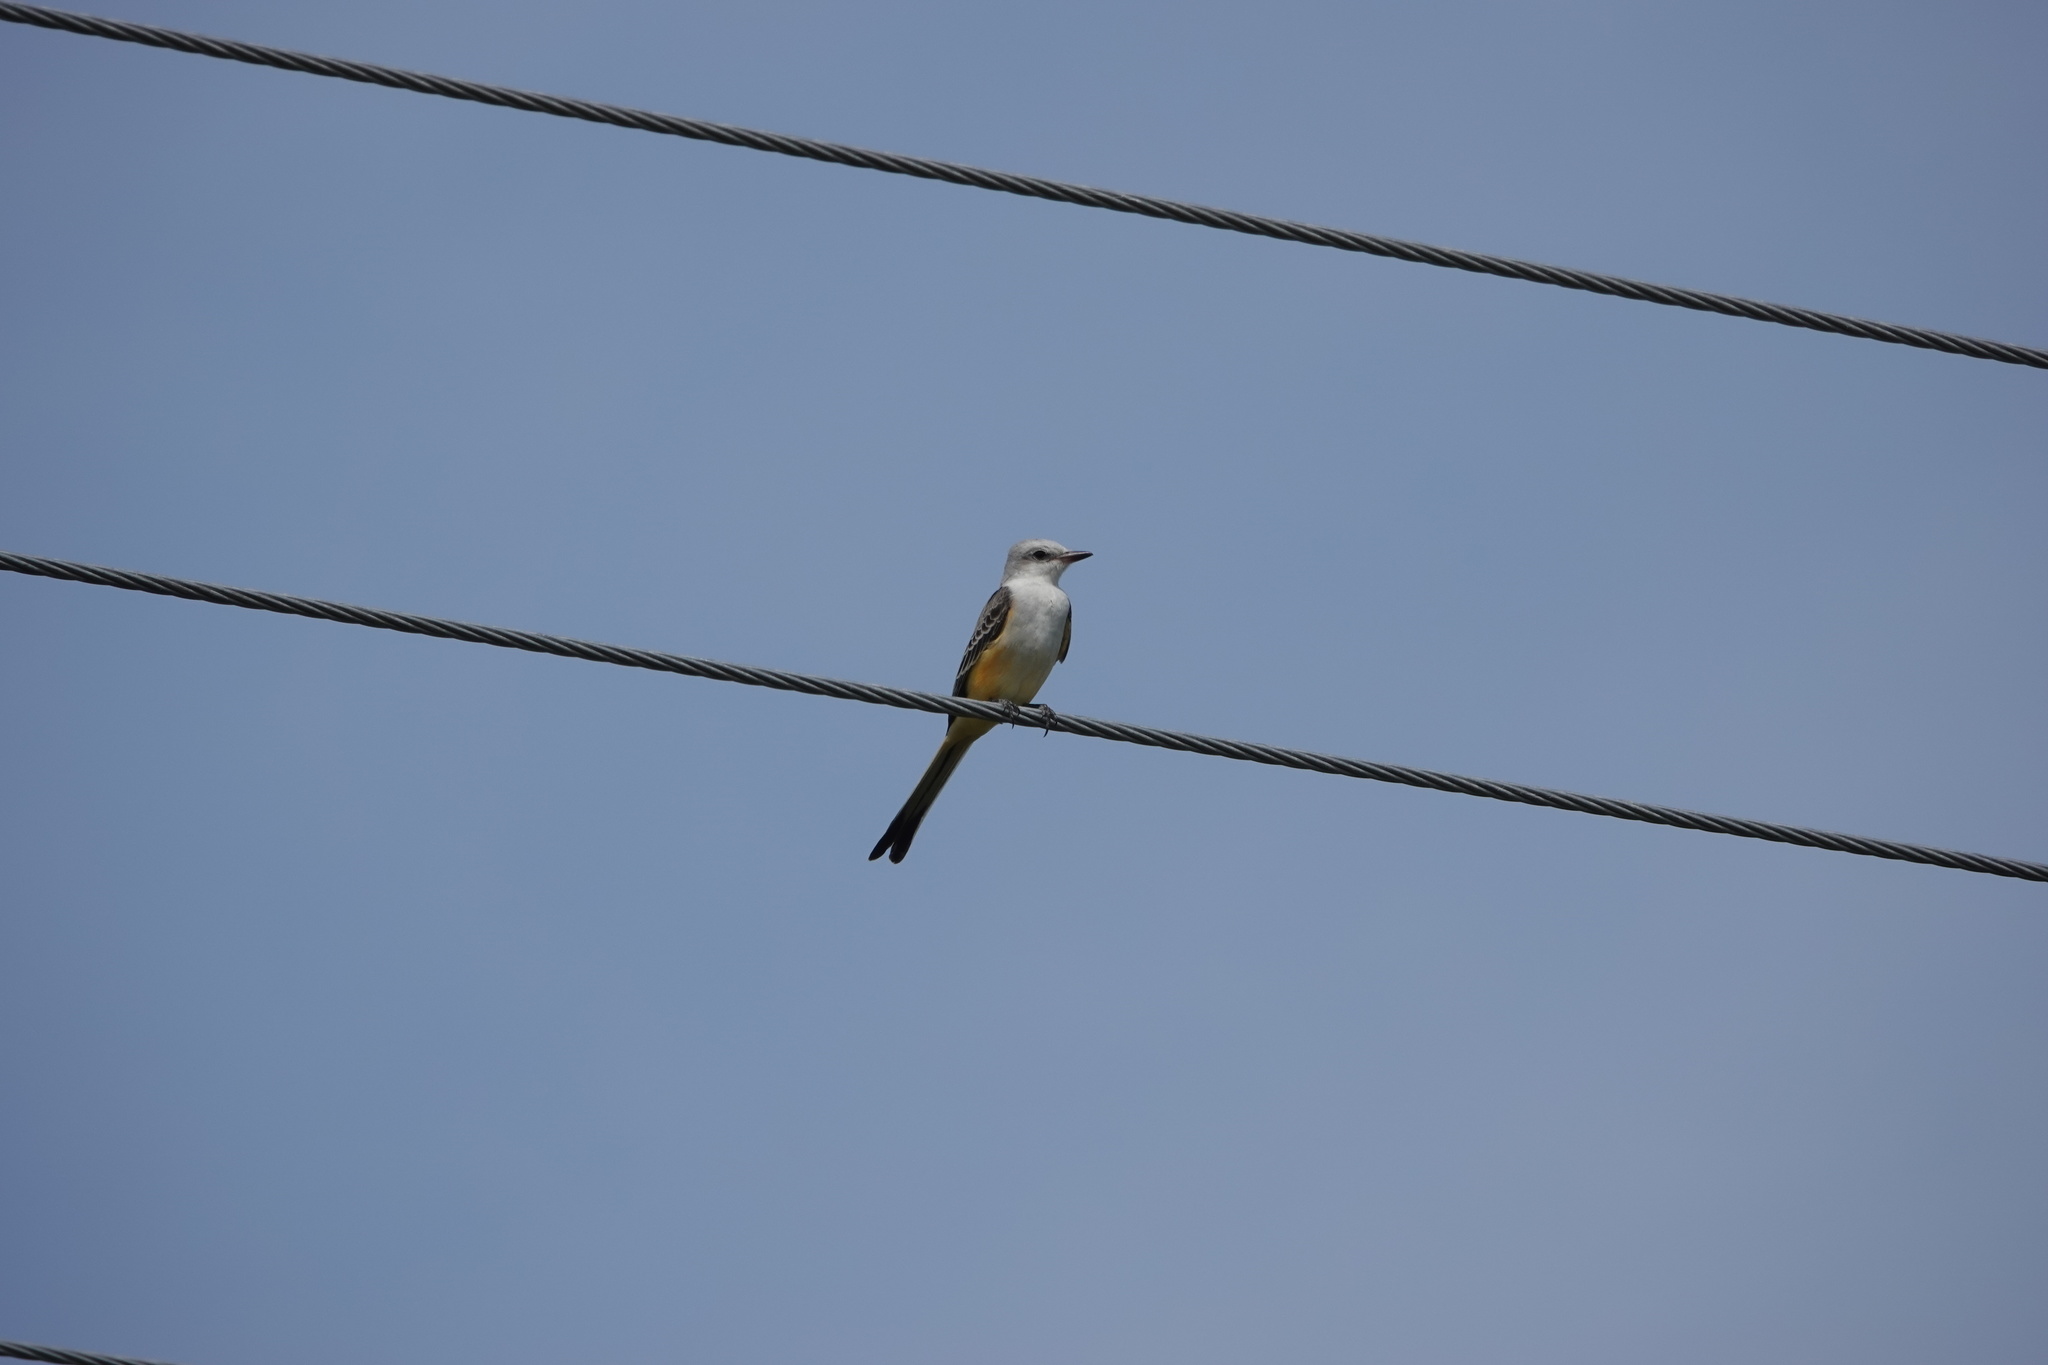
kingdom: Animalia
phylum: Chordata
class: Aves
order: Passeriformes
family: Tyrannidae
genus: Tyrannus
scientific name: Tyrannus forficatus
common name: Scissor-tailed flycatcher
